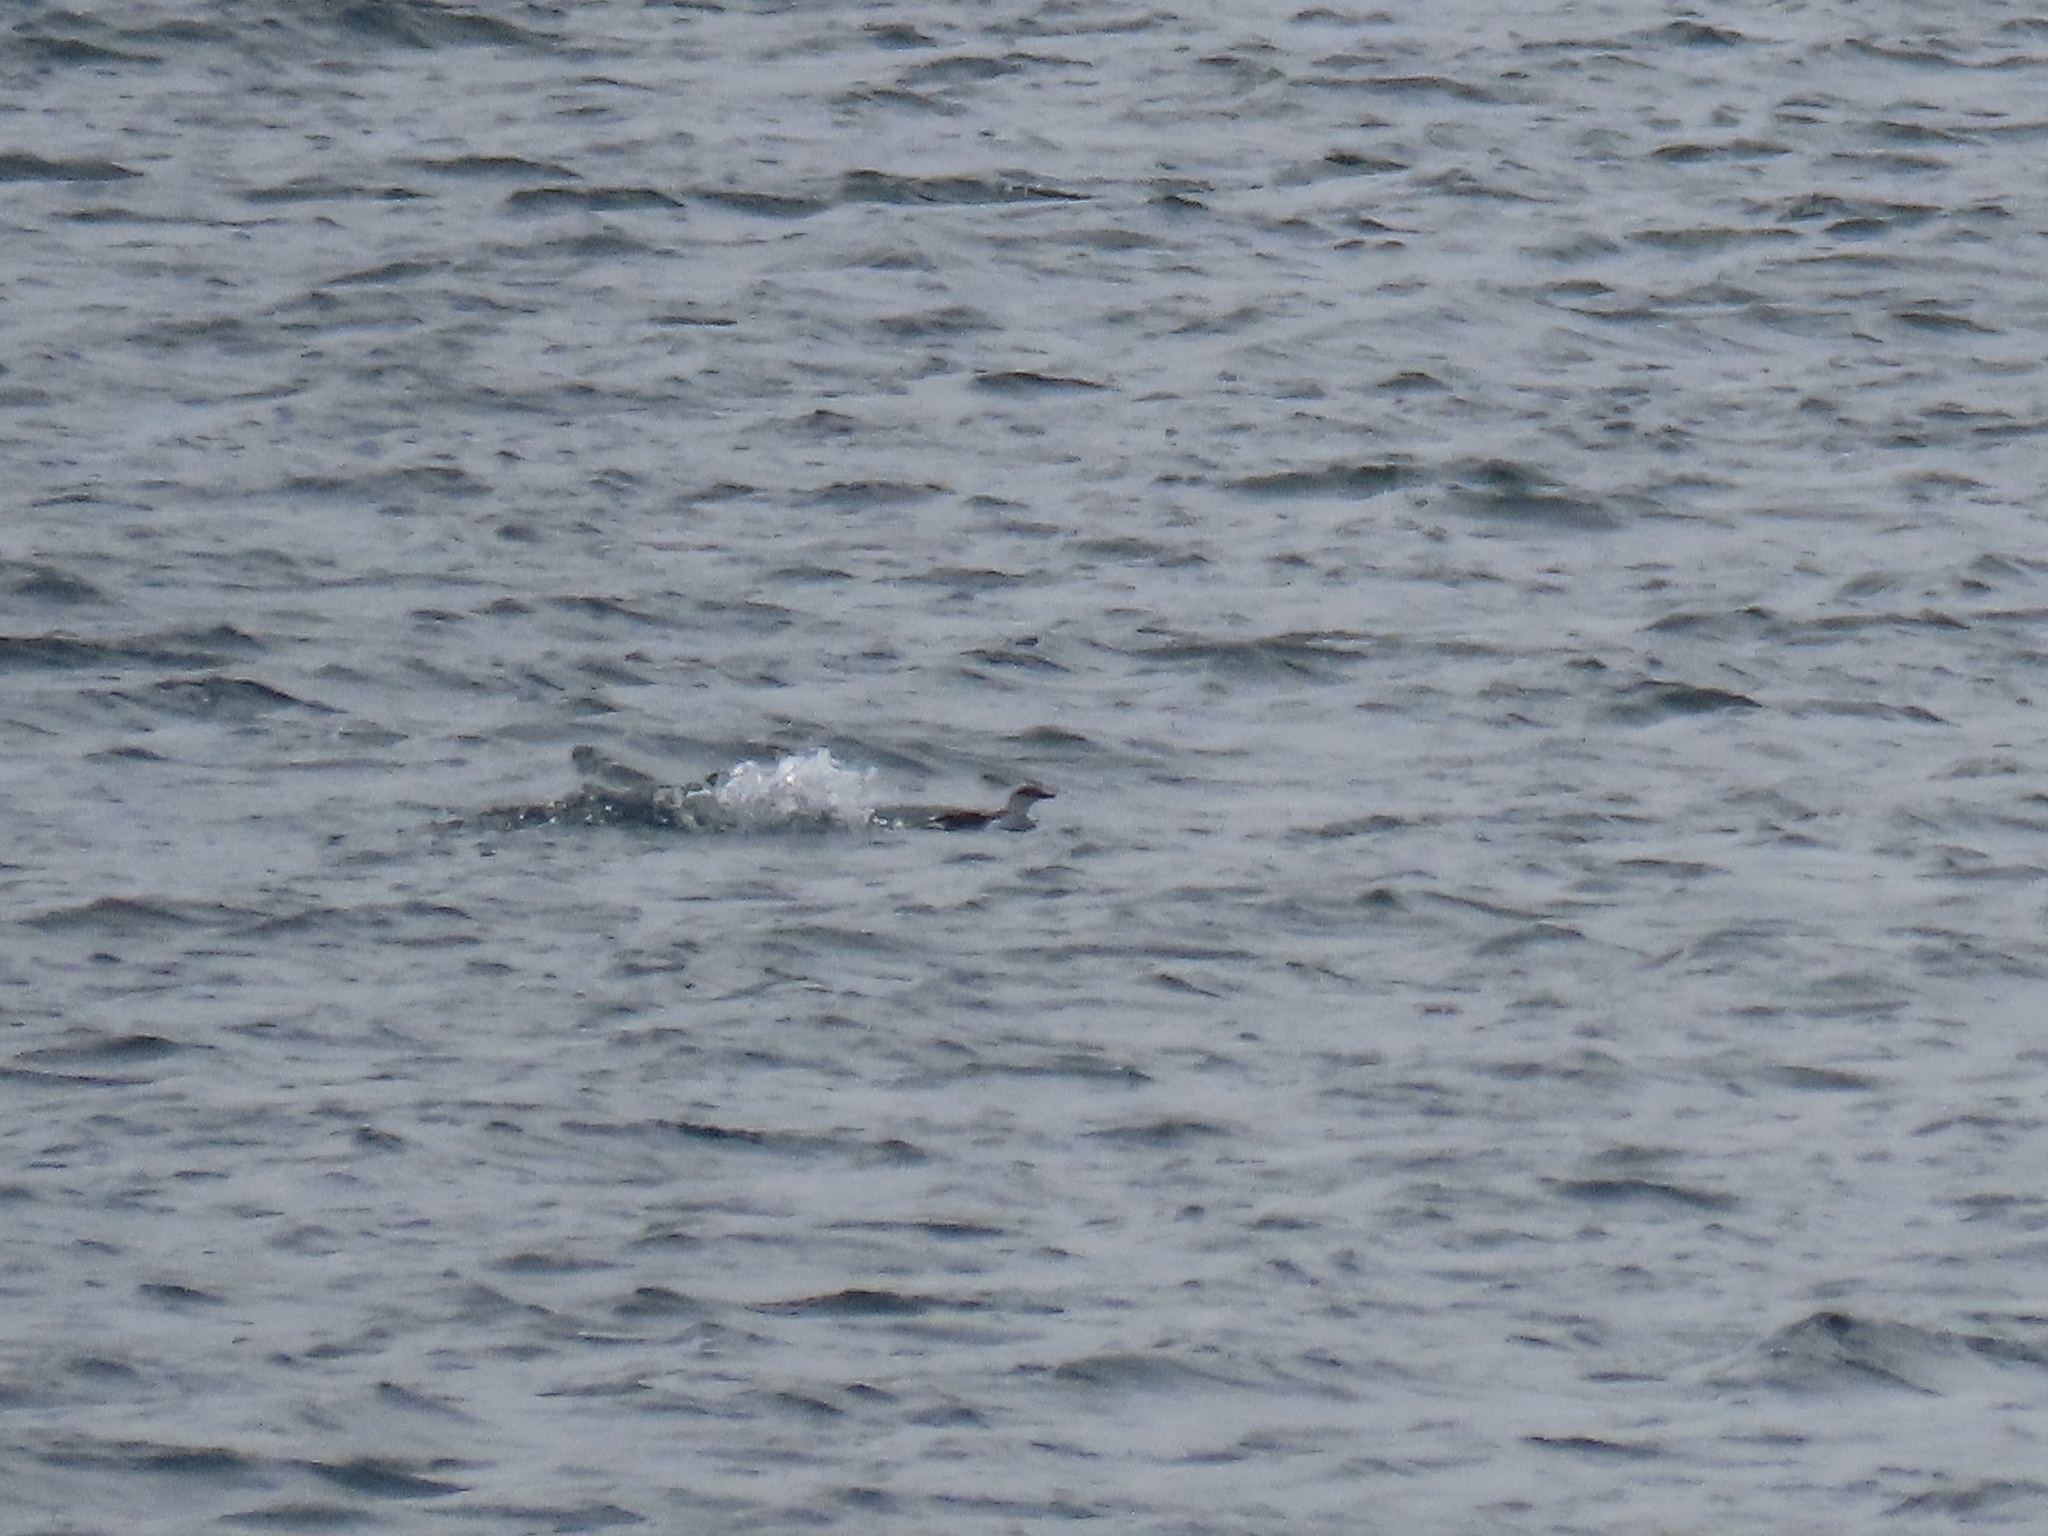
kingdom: Animalia
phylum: Chordata
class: Aves
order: Charadriiformes
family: Alcidae
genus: Cepphus
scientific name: Cepphus columba
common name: Pigeon guillemot
